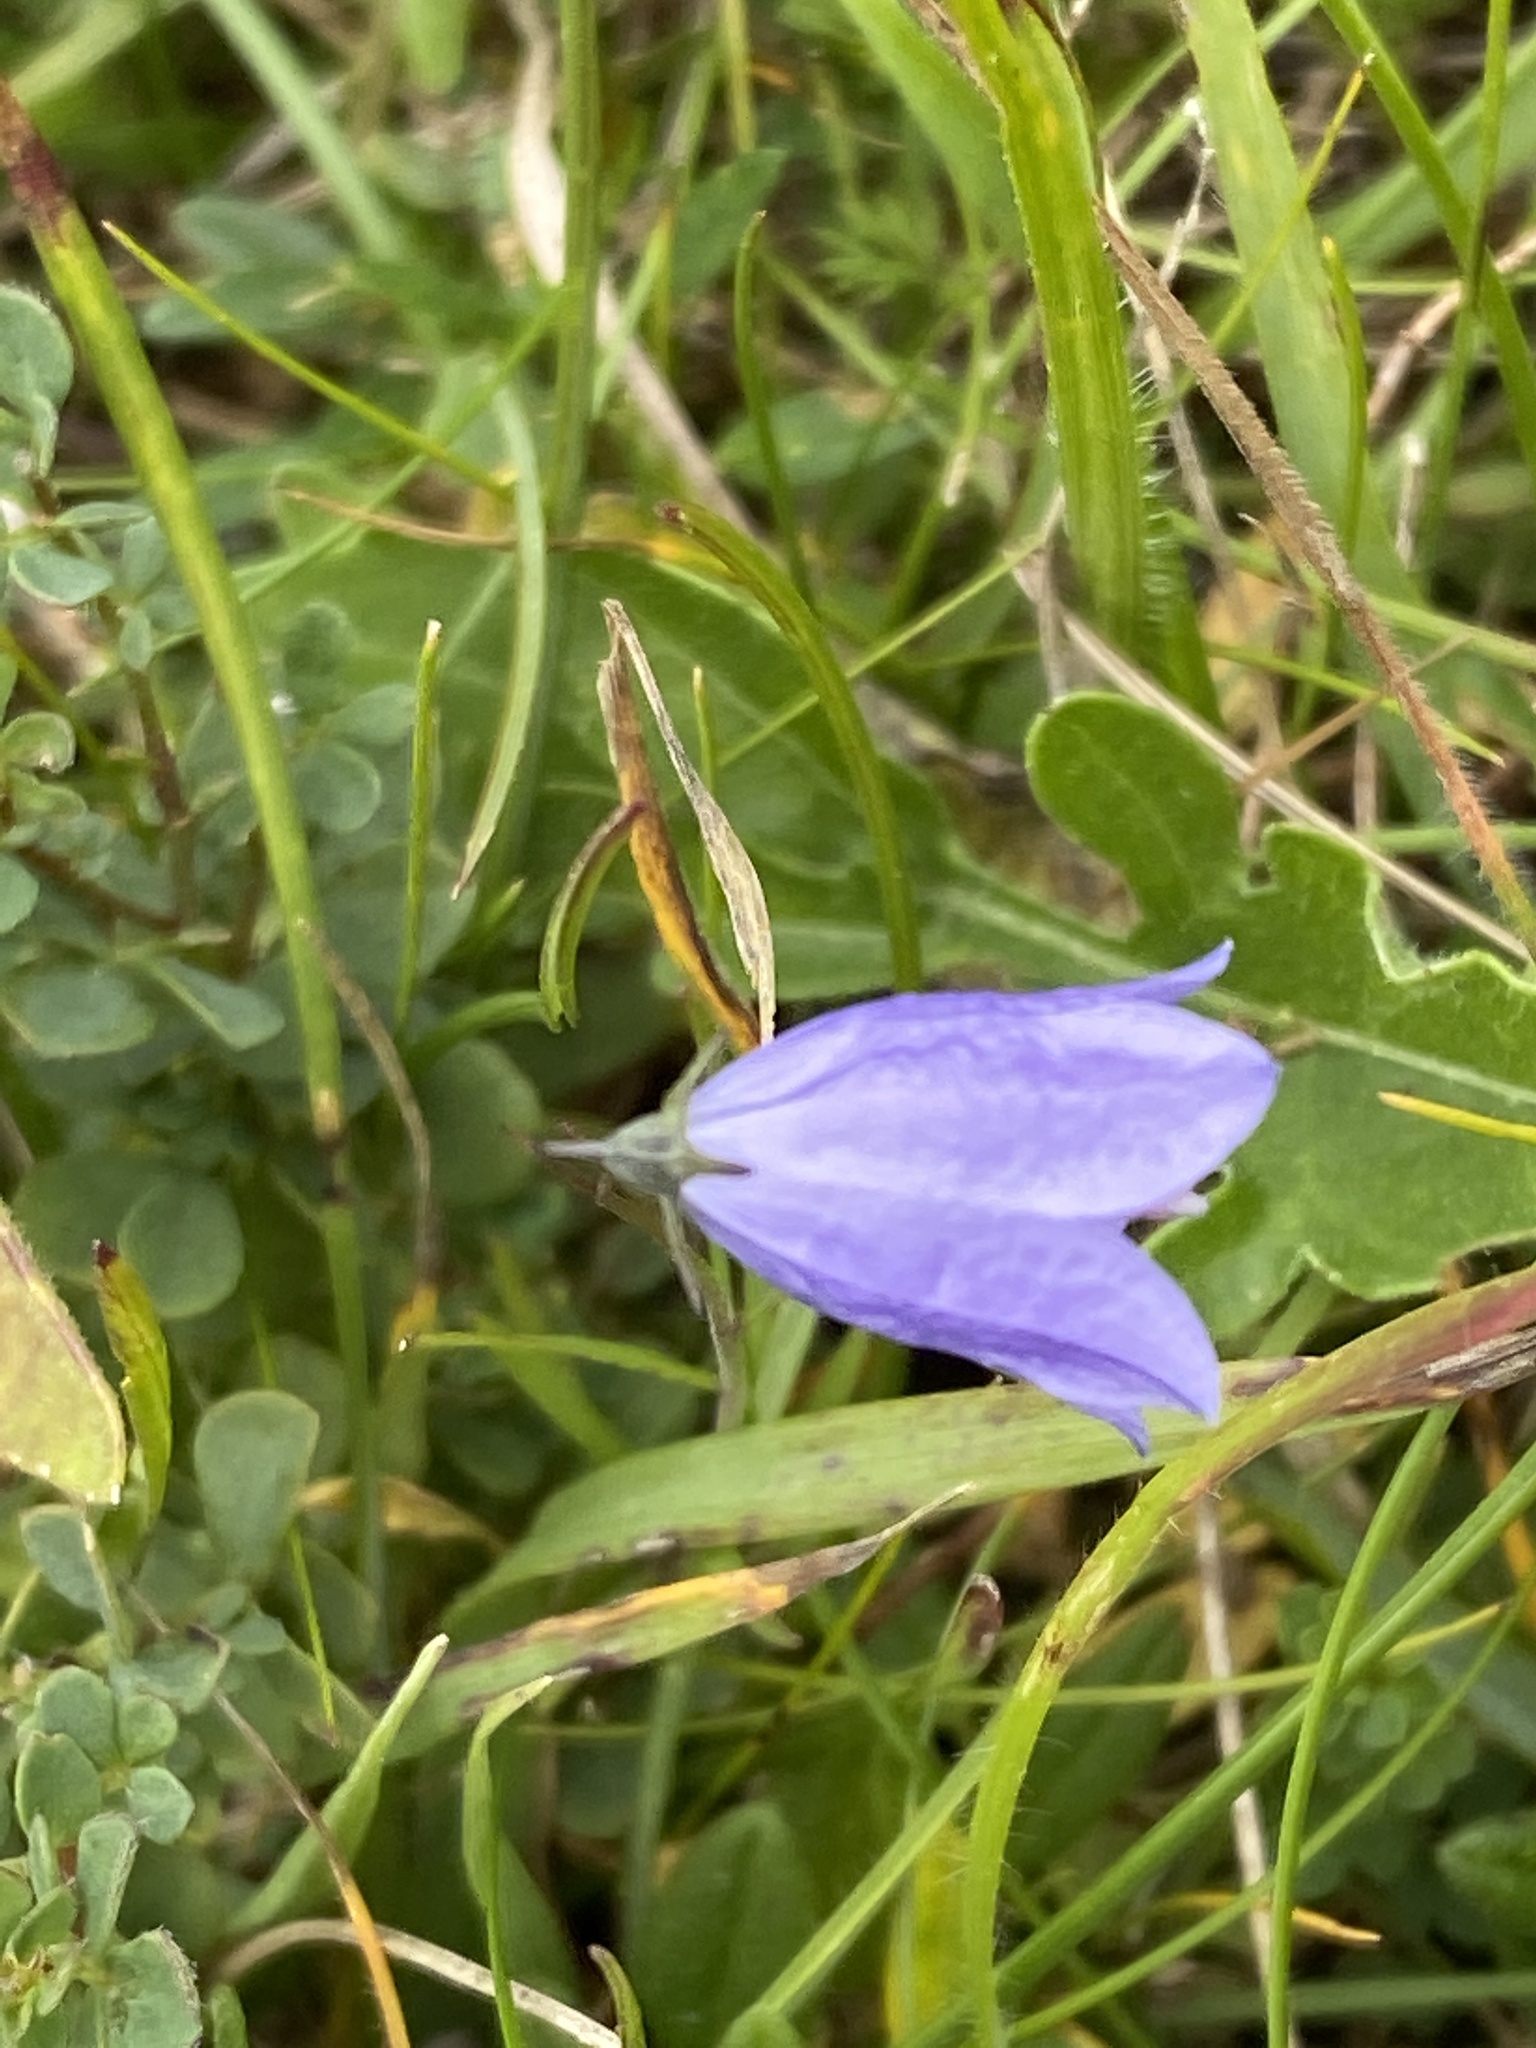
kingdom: Plantae
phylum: Tracheophyta
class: Magnoliopsida
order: Asterales
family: Campanulaceae
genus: Campanula
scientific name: Campanula rotundifolia
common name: Harebell
